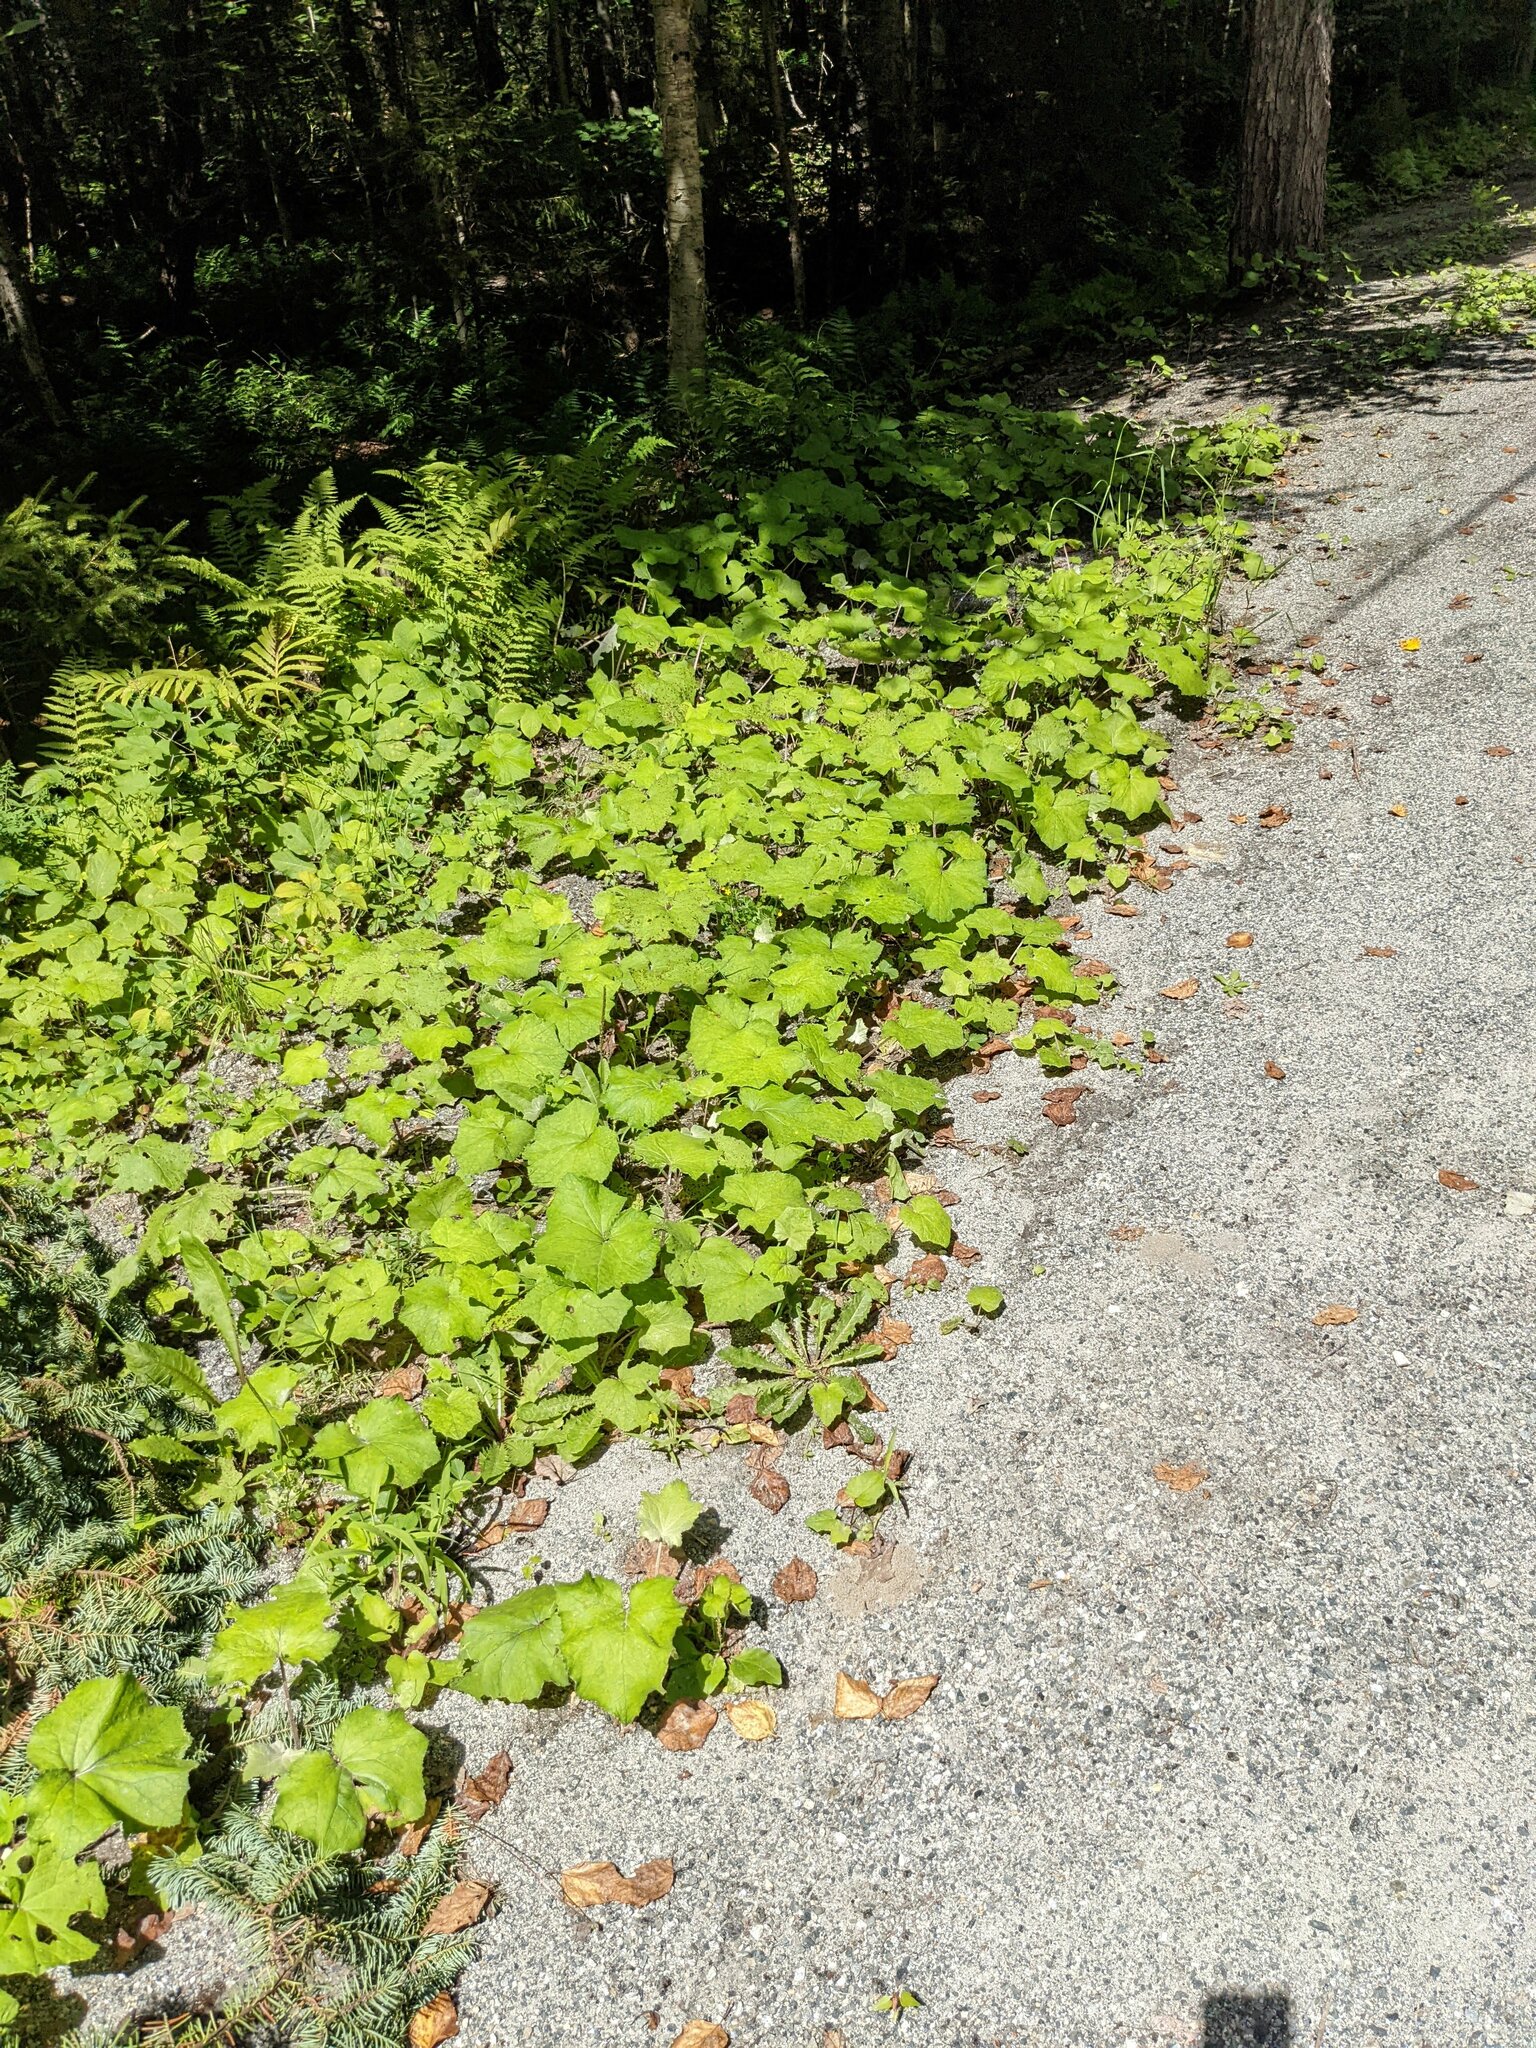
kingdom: Plantae
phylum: Tracheophyta
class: Magnoliopsida
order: Asterales
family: Asteraceae
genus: Tussilago
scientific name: Tussilago farfara
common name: Coltsfoot
